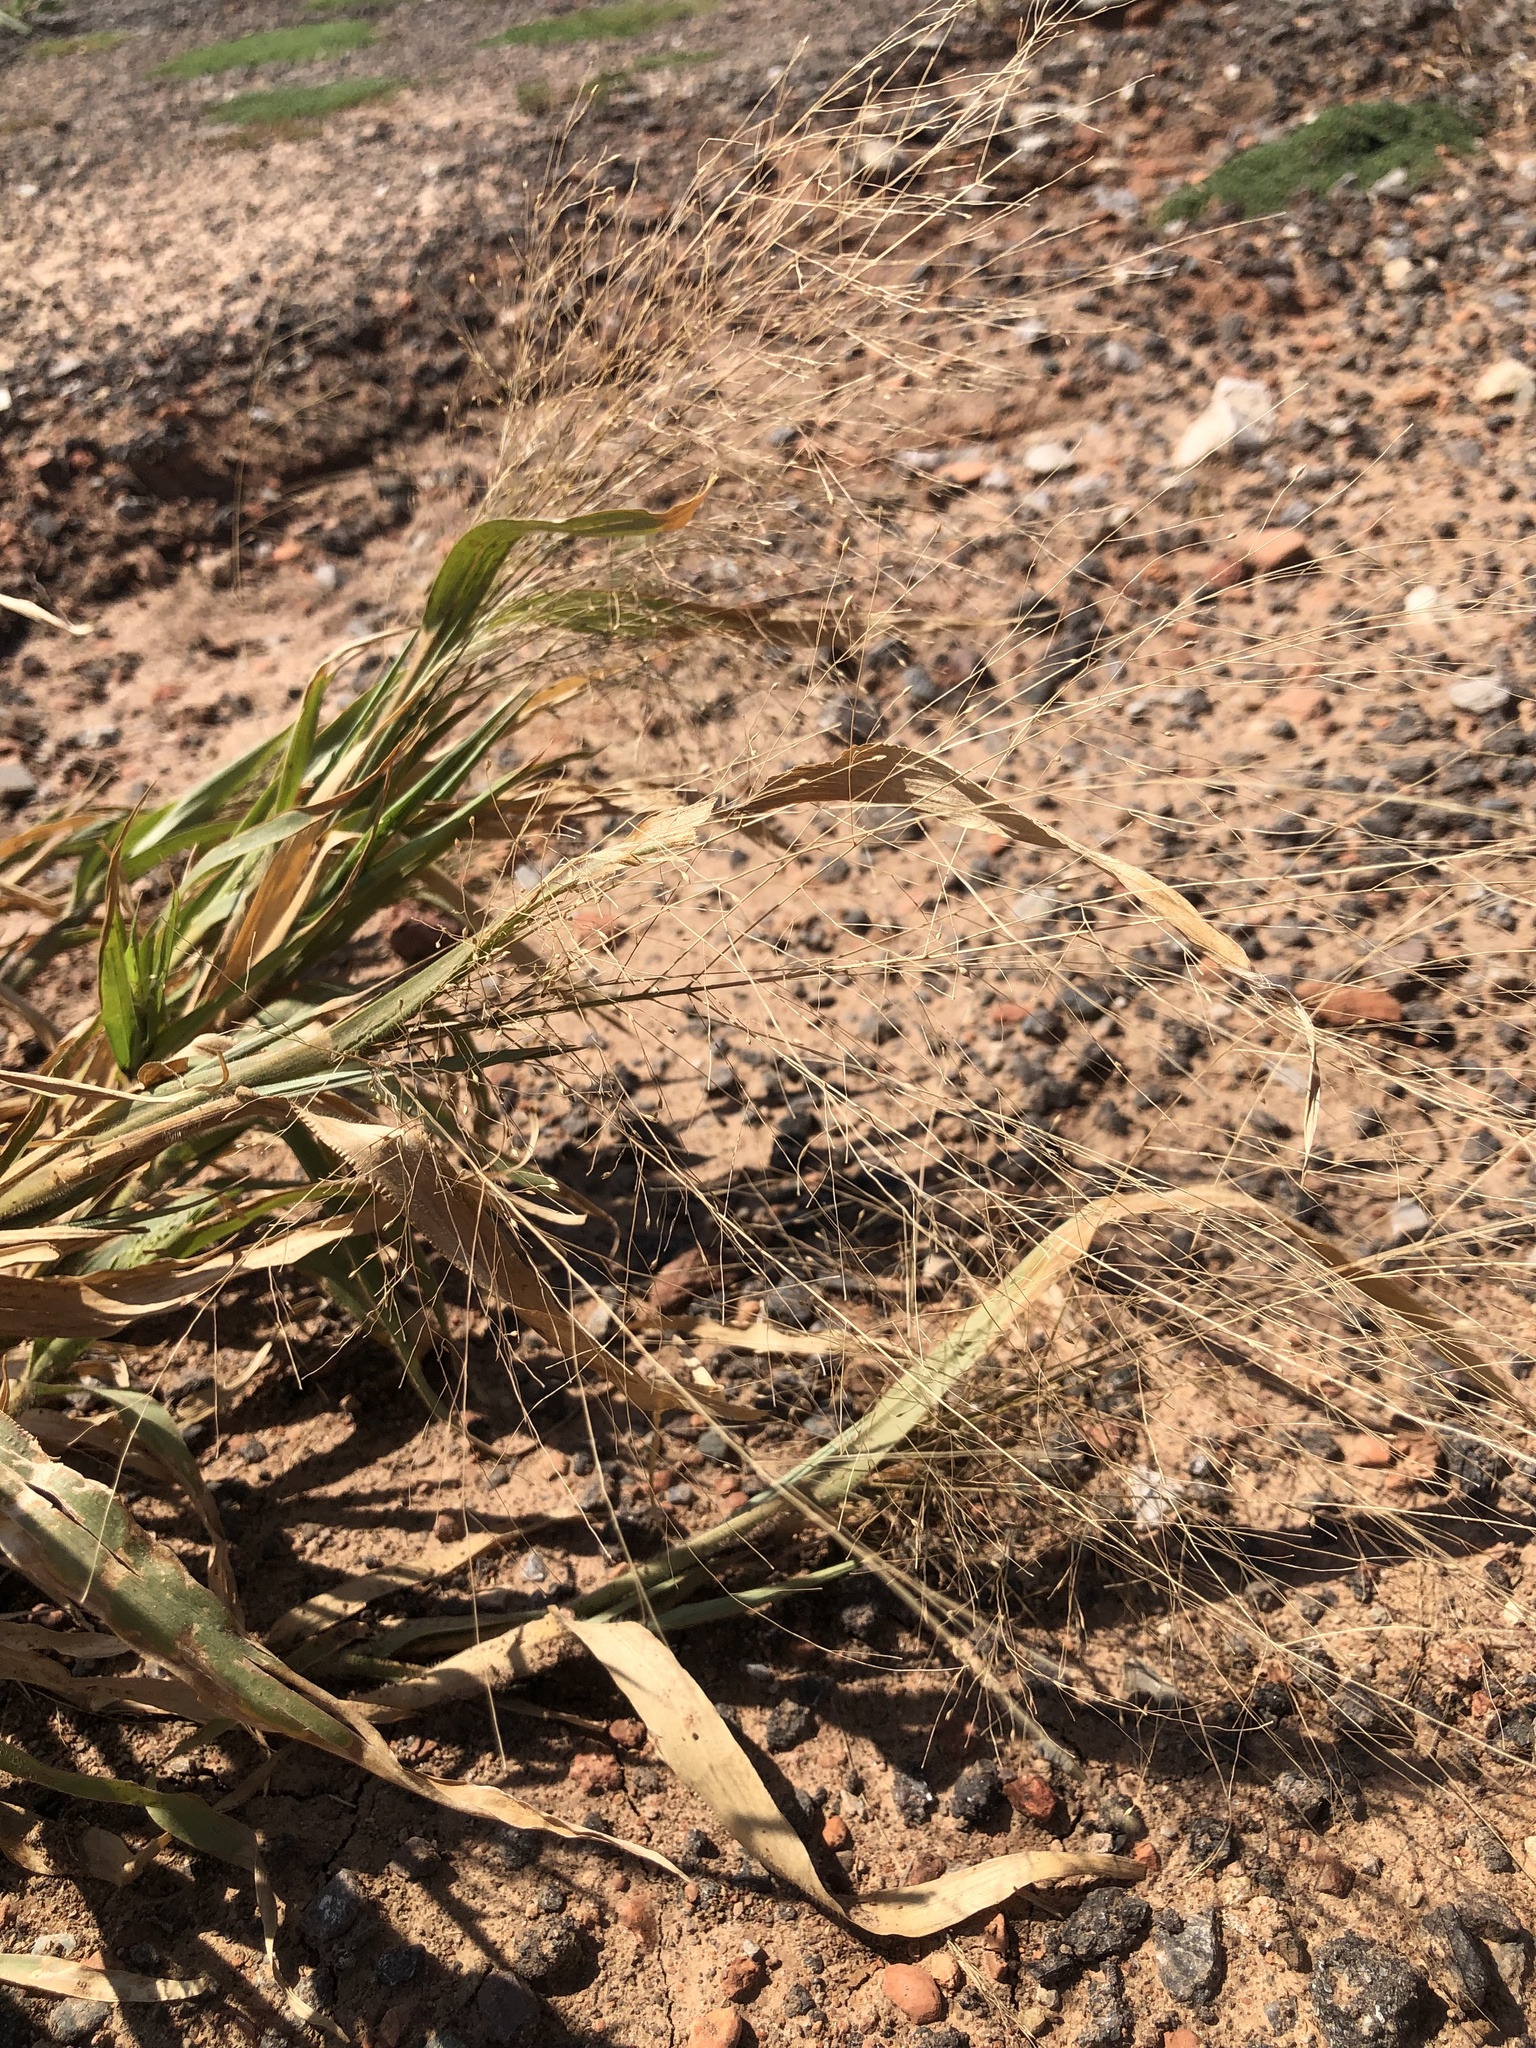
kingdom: Plantae
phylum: Tracheophyta
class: Liliopsida
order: Poales
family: Poaceae
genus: Panicum
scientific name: Panicum capillare
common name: Witch-grass
